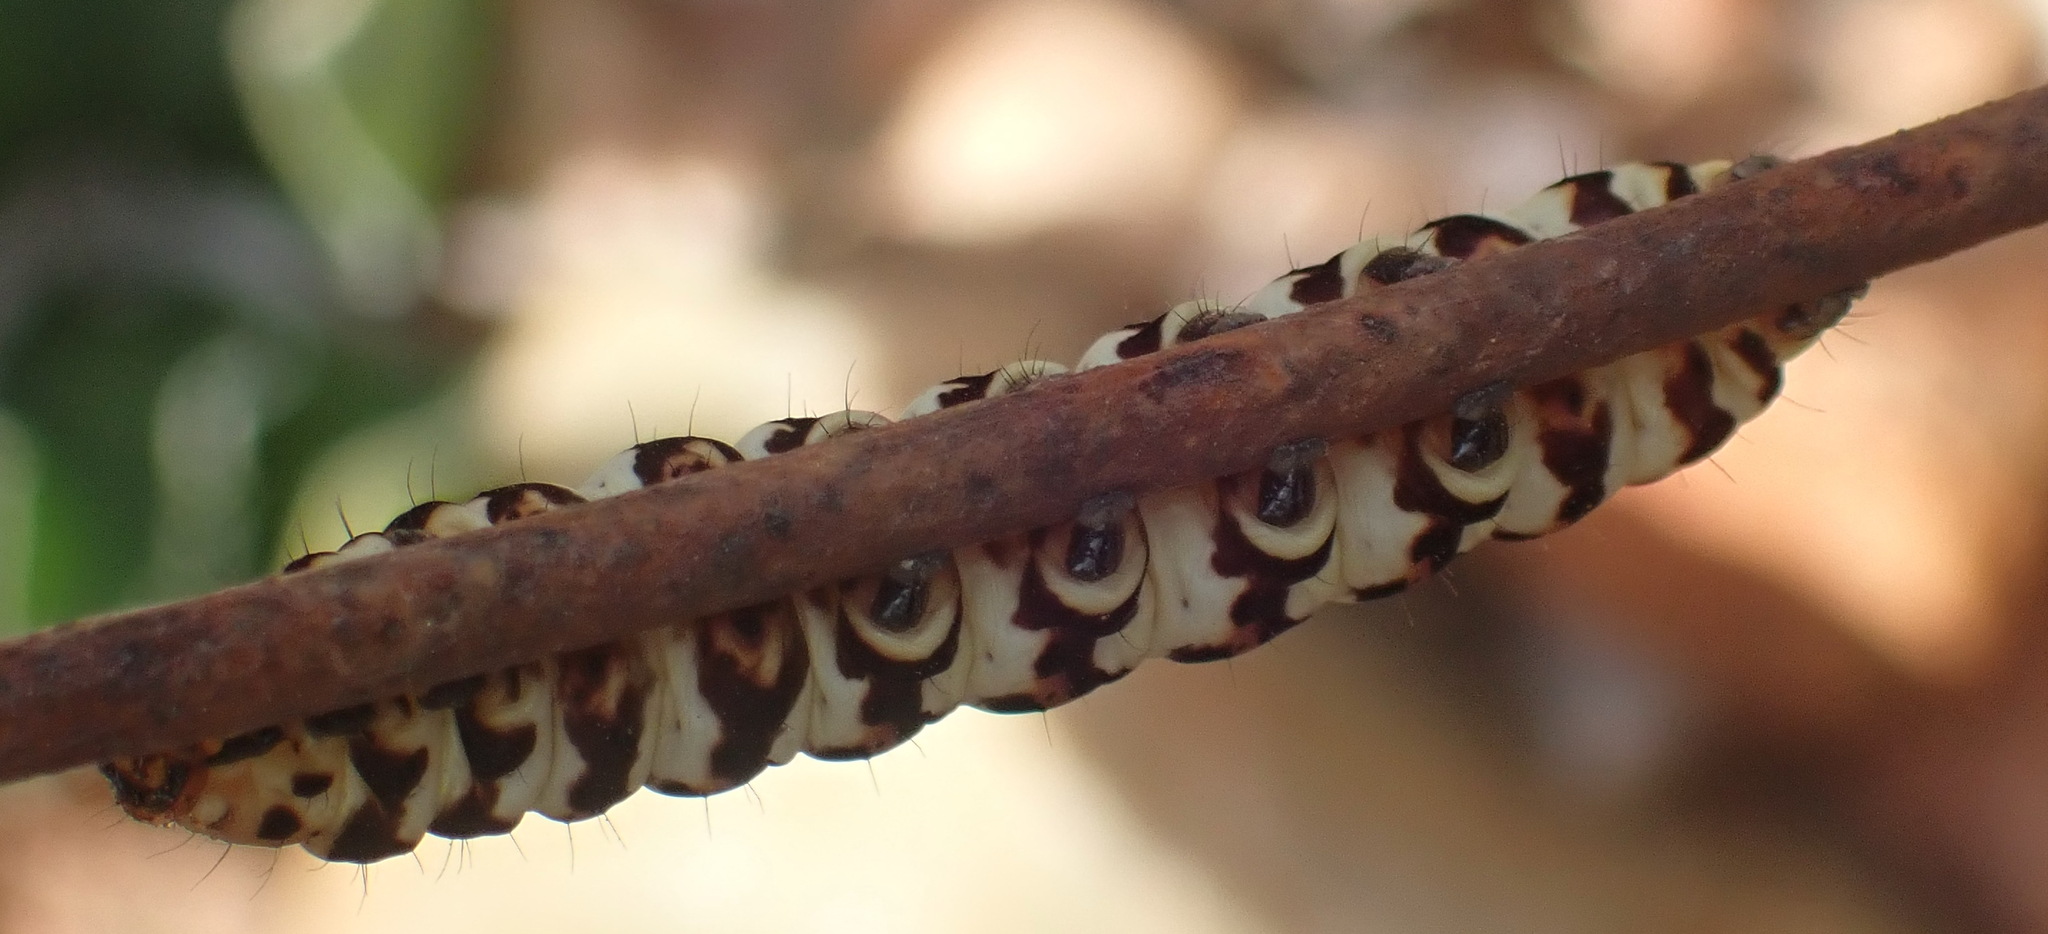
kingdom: Animalia
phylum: Arthropoda
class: Insecta
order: Lepidoptera
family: Noctuidae
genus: Diaphone
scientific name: Diaphone eumela
